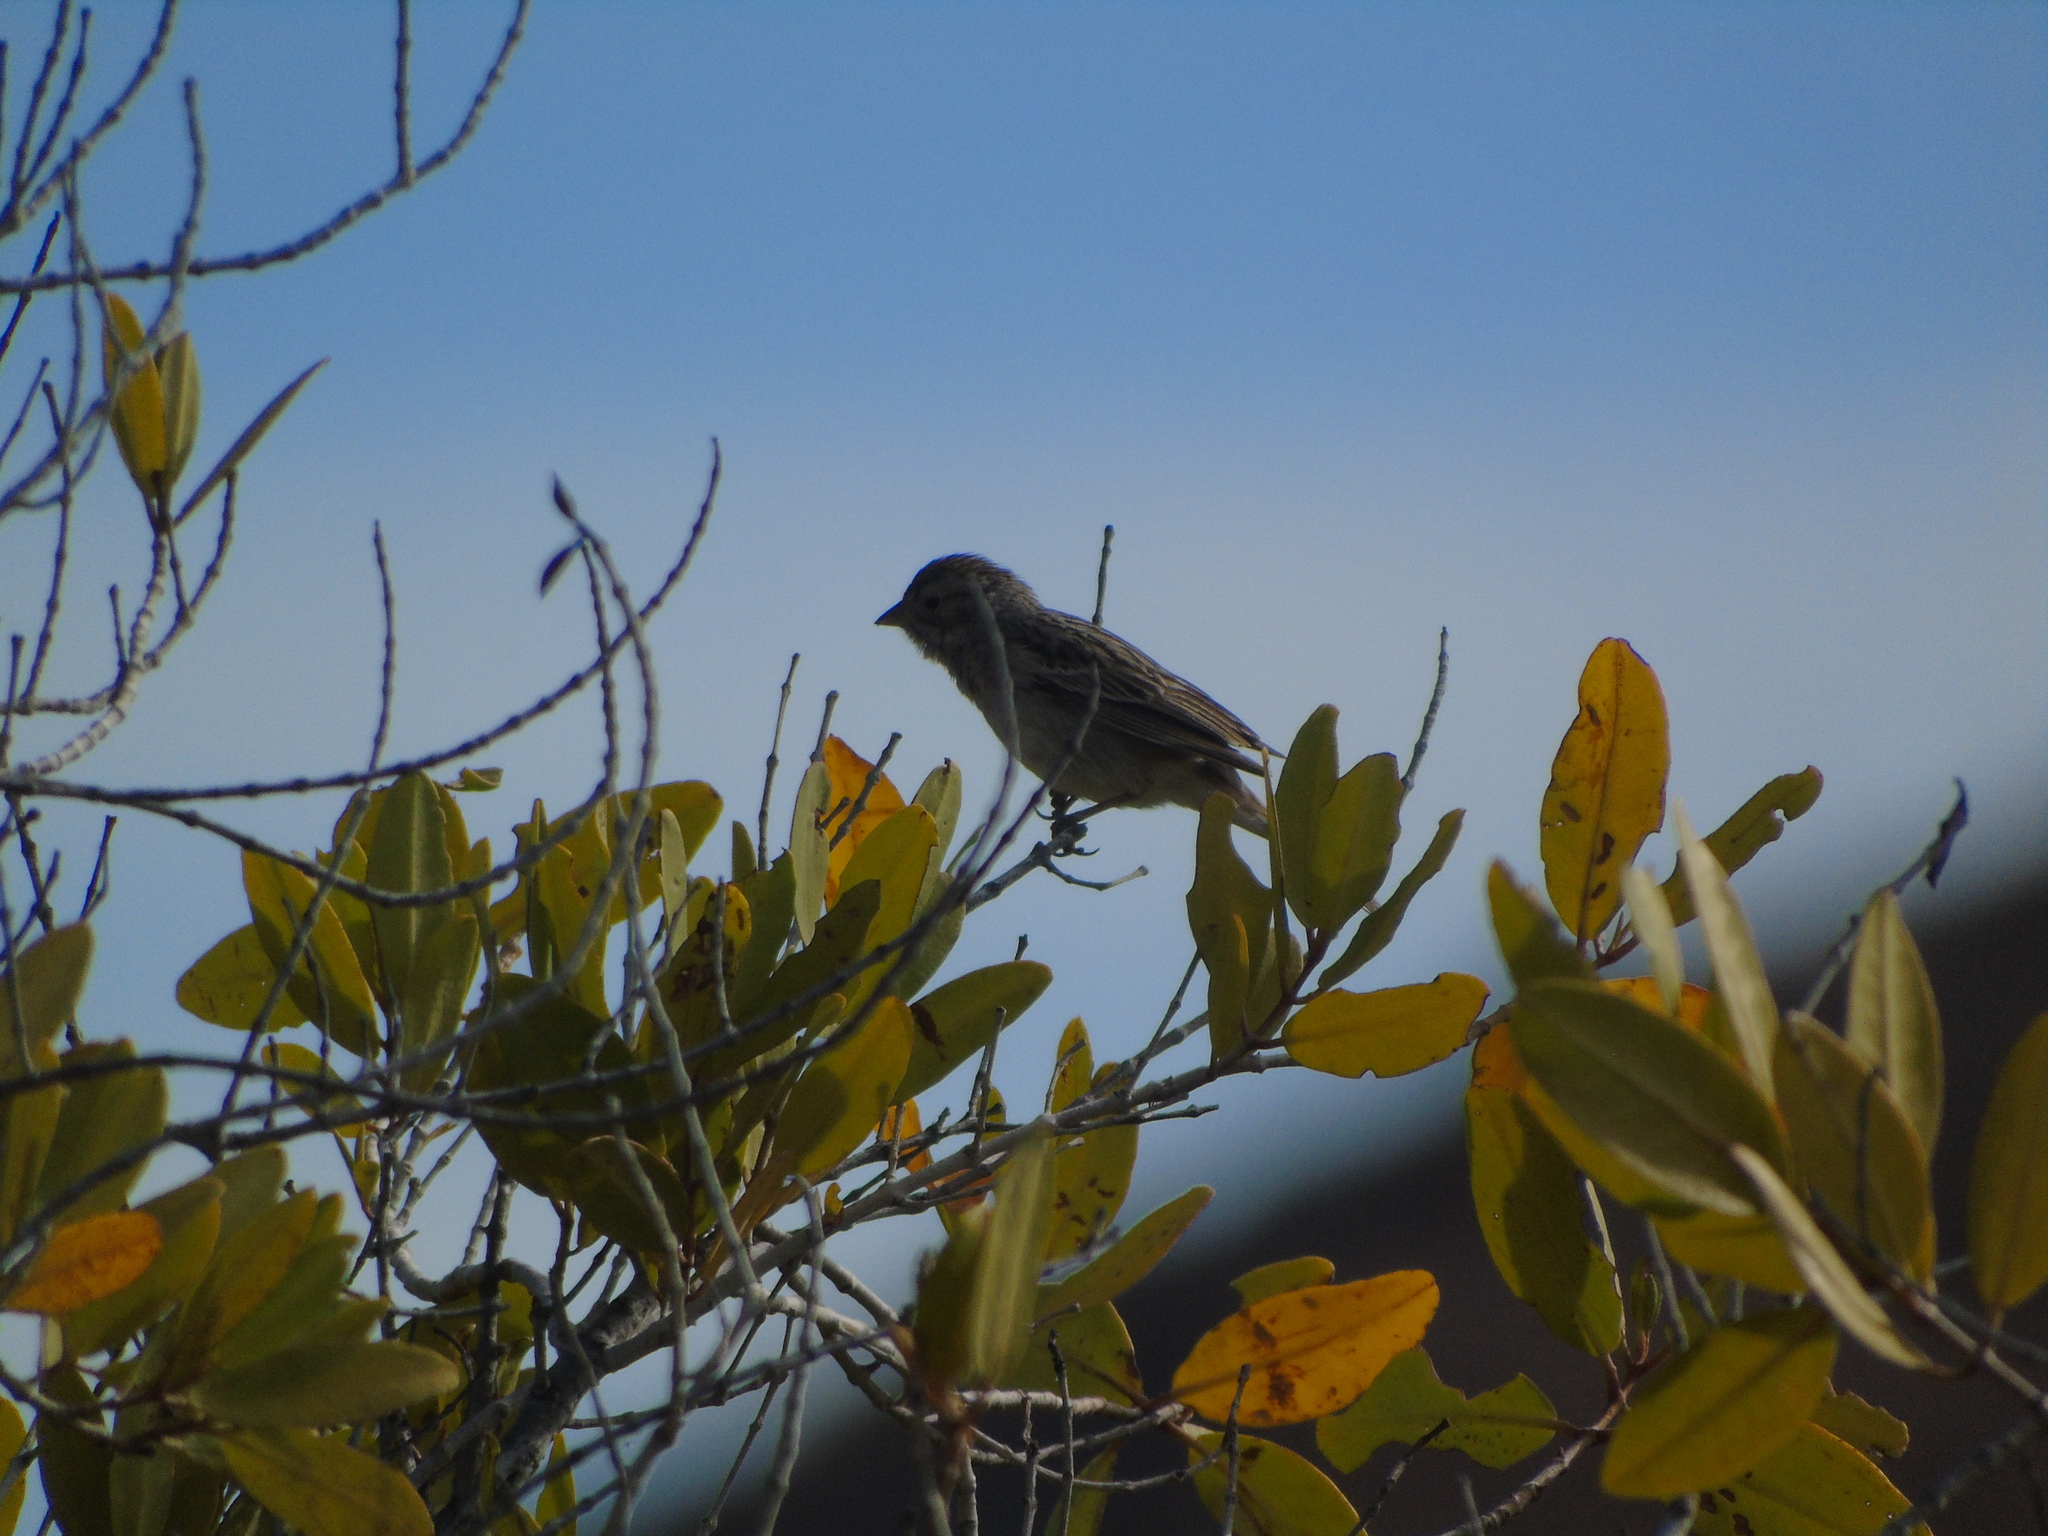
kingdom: Animalia
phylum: Chordata
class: Aves
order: Passeriformes
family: Passerellidae
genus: Spizella
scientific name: Spizella passerina
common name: Chipping sparrow
